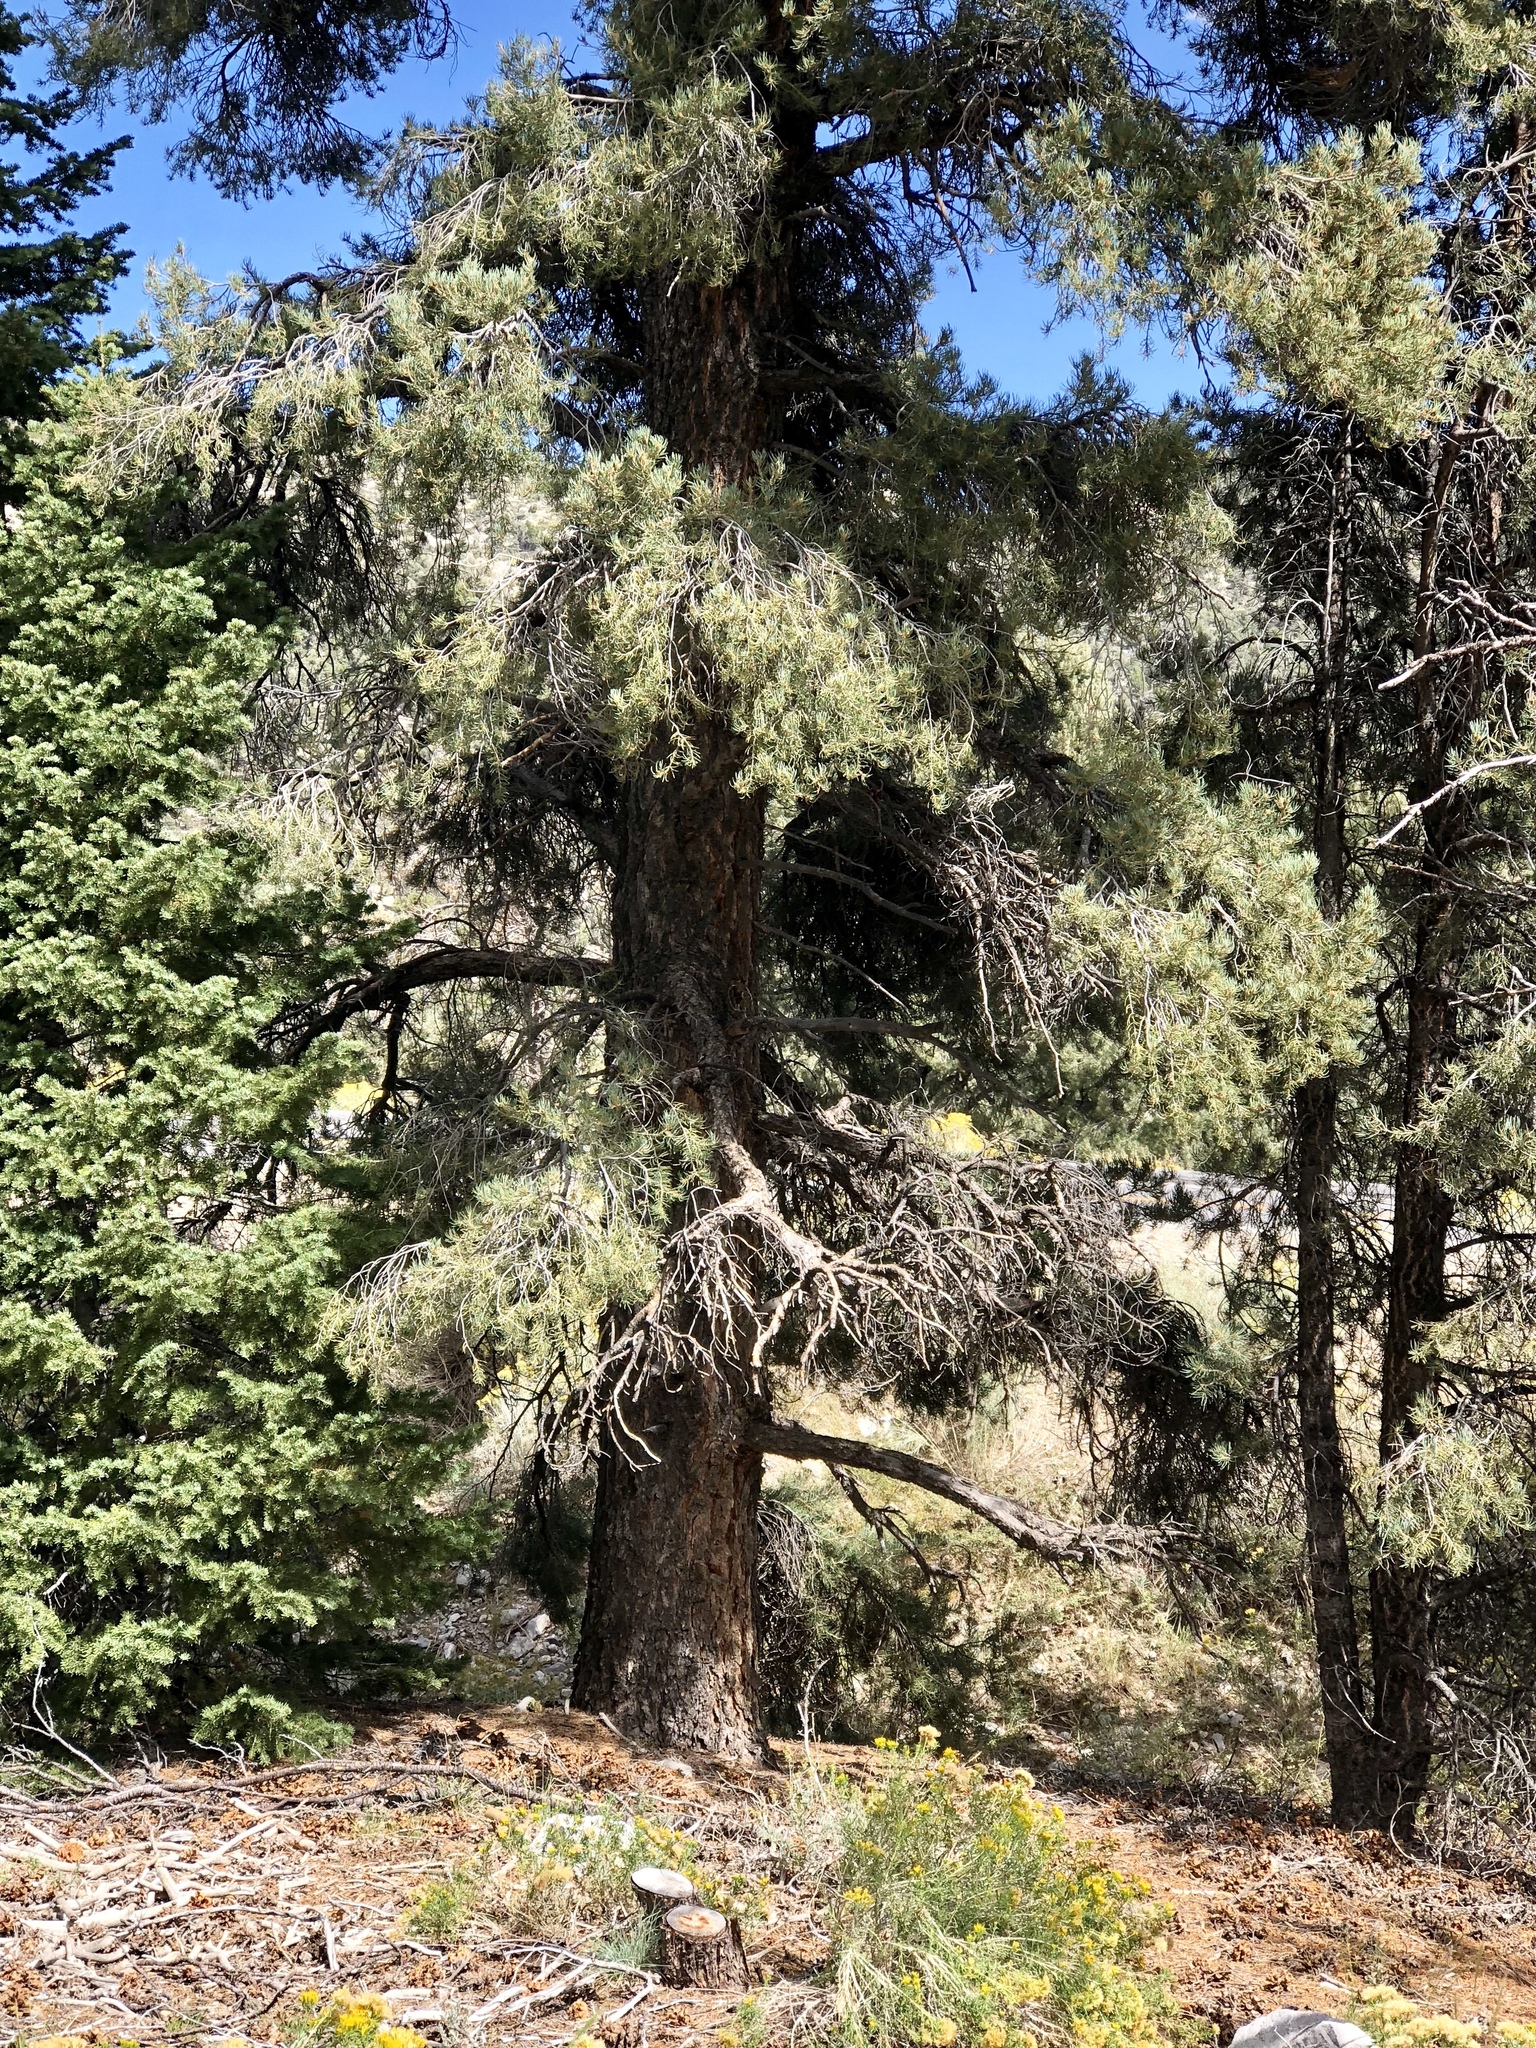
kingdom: Plantae
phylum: Tracheophyta
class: Pinopsida
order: Pinales
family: Pinaceae
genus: Pinus
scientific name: Pinus monophylla
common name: One-leaved nut pine
